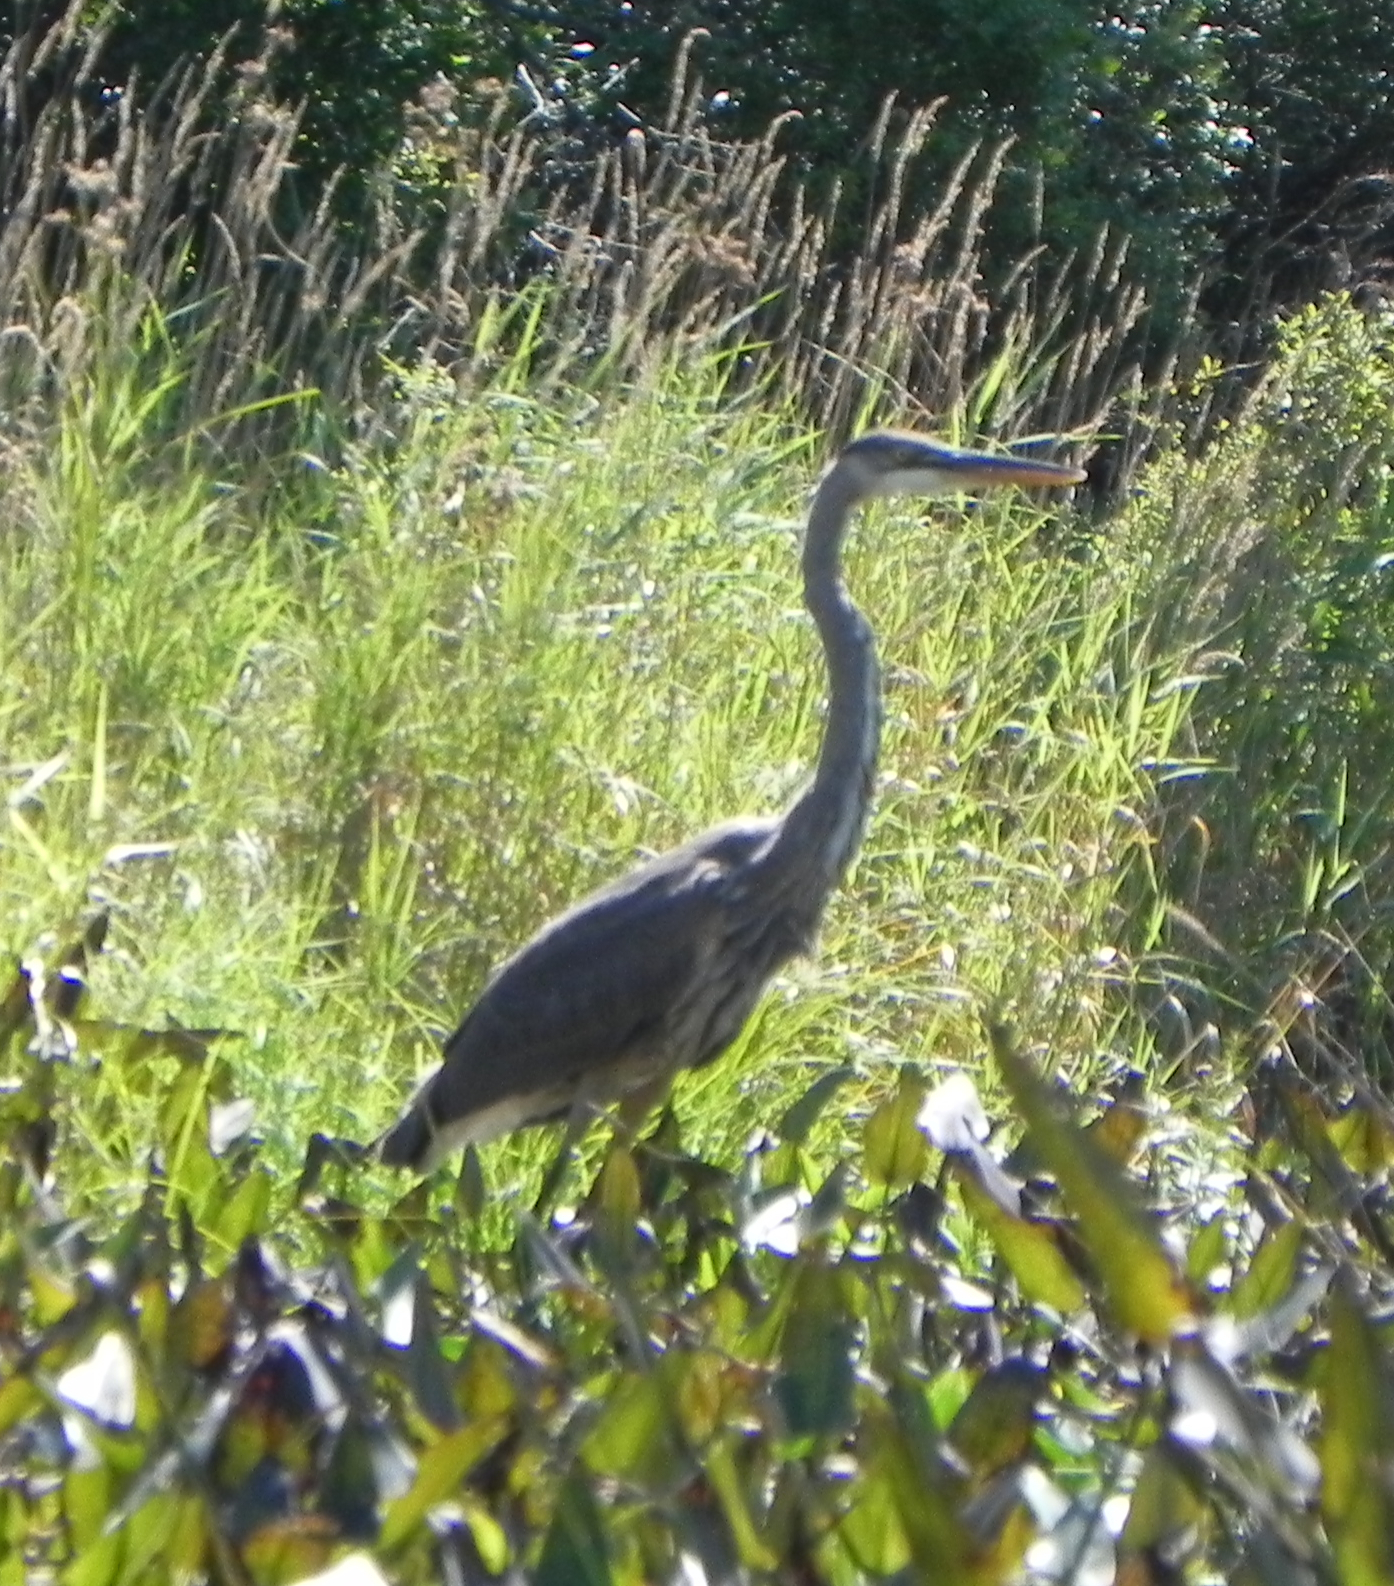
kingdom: Animalia
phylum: Chordata
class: Aves
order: Pelecaniformes
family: Ardeidae
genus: Ardea
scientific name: Ardea herodias
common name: Great blue heron
